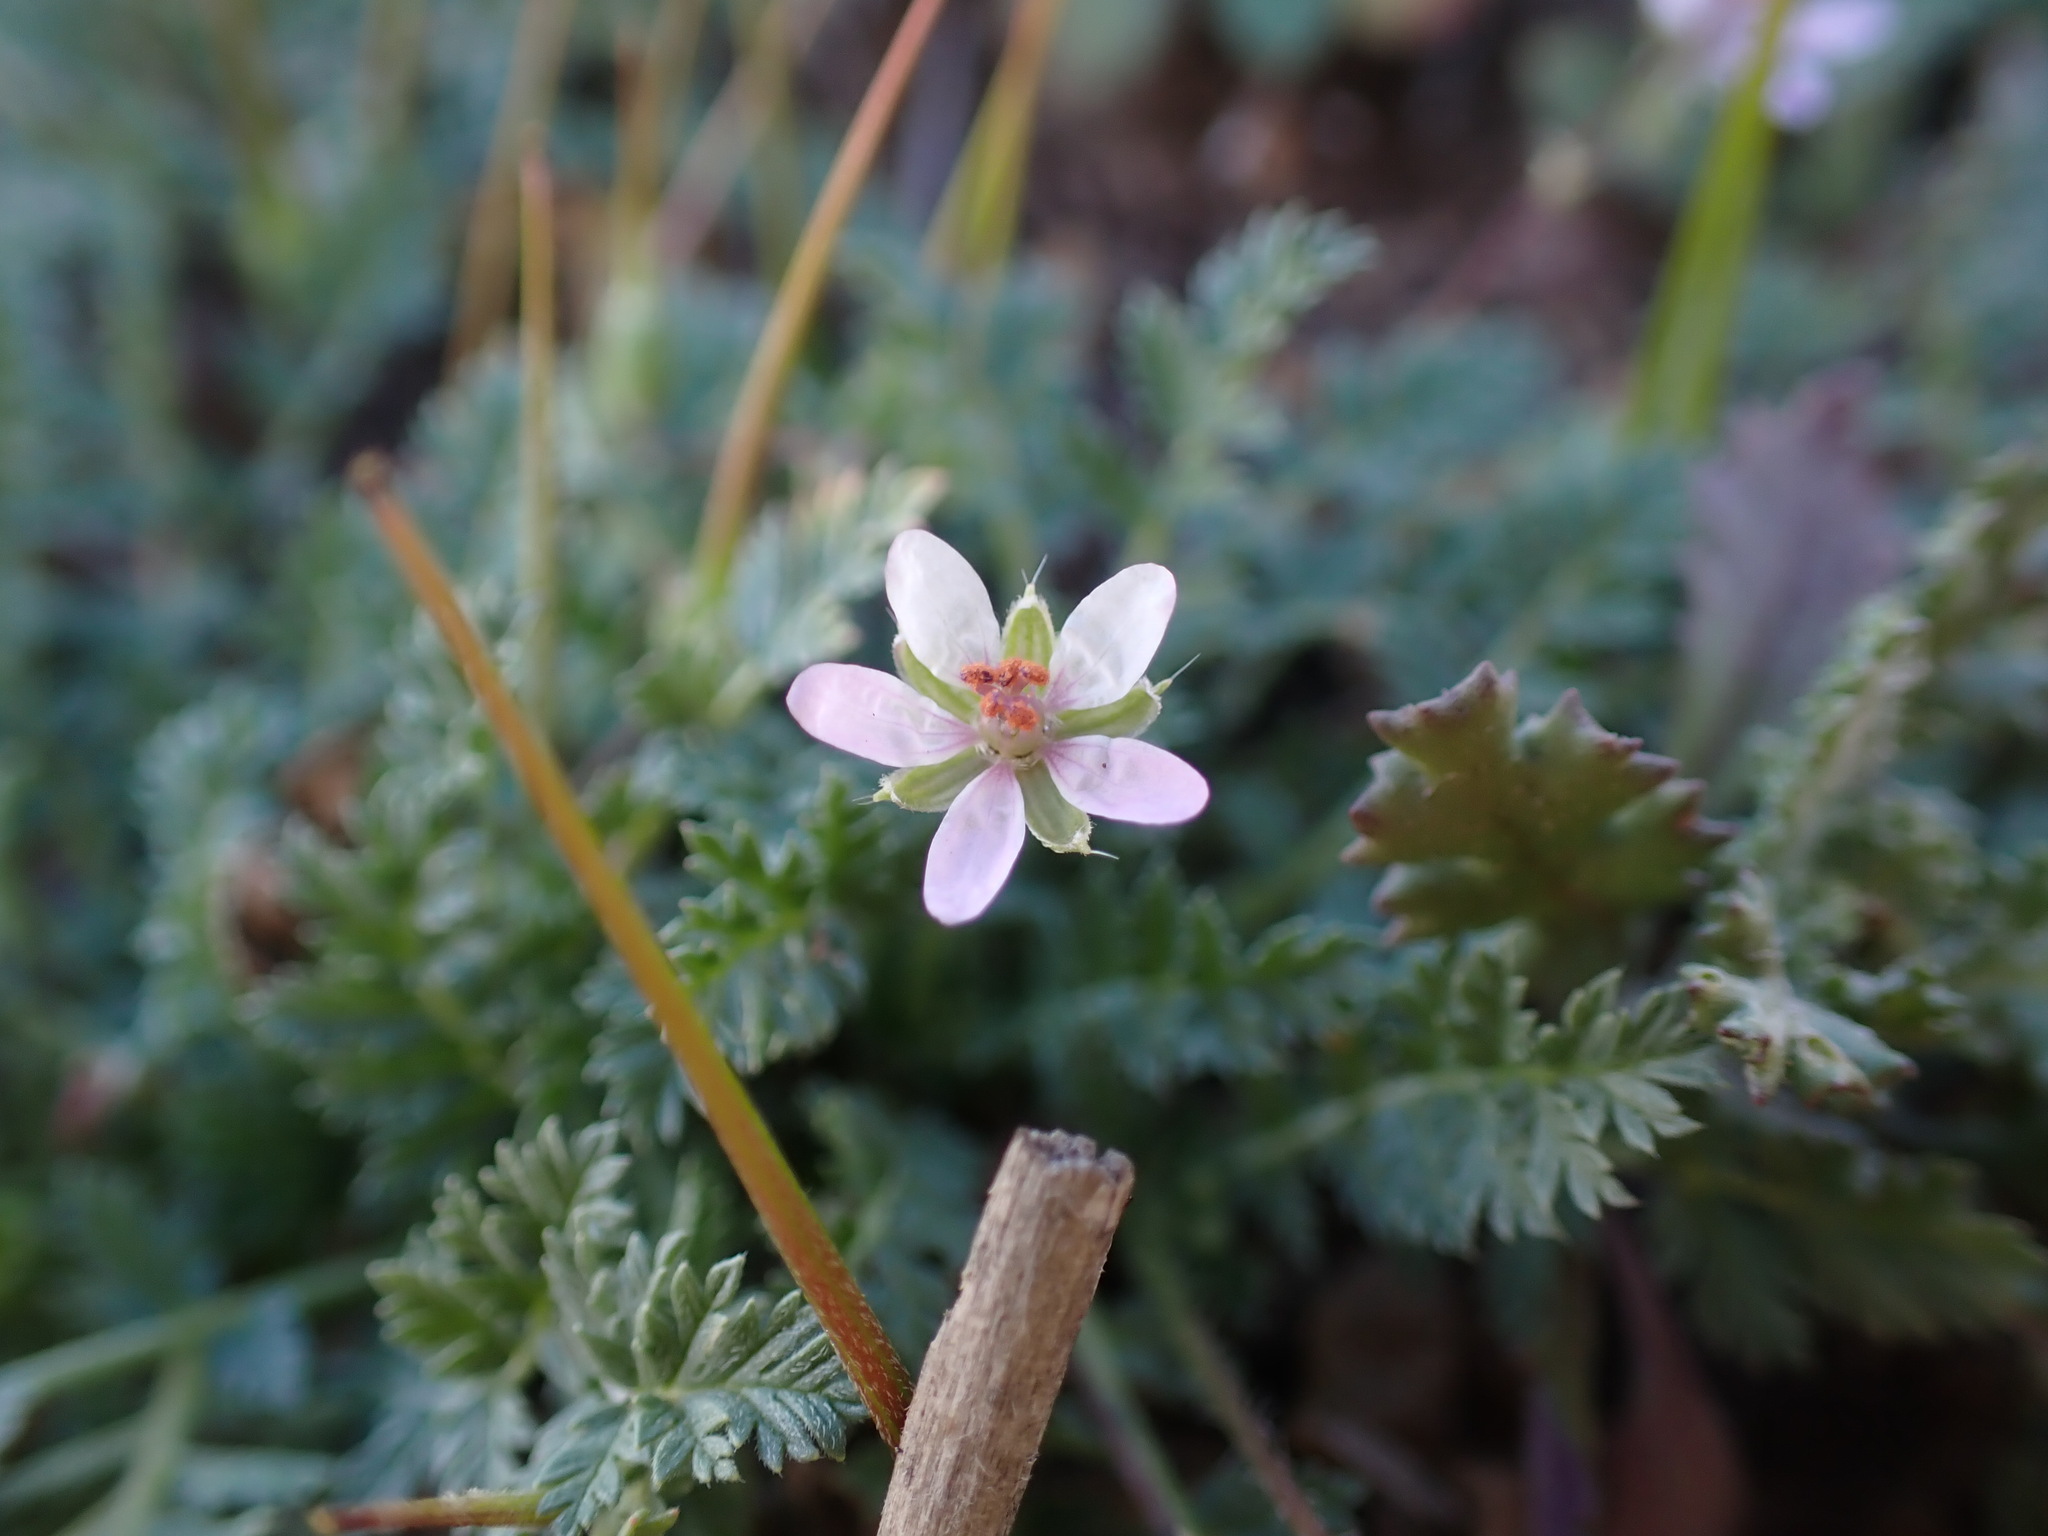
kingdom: Plantae
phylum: Tracheophyta
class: Magnoliopsida
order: Geraniales
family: Geraniaceae
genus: Erodium
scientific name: Erodium cicutarium
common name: Common stork's-bill
